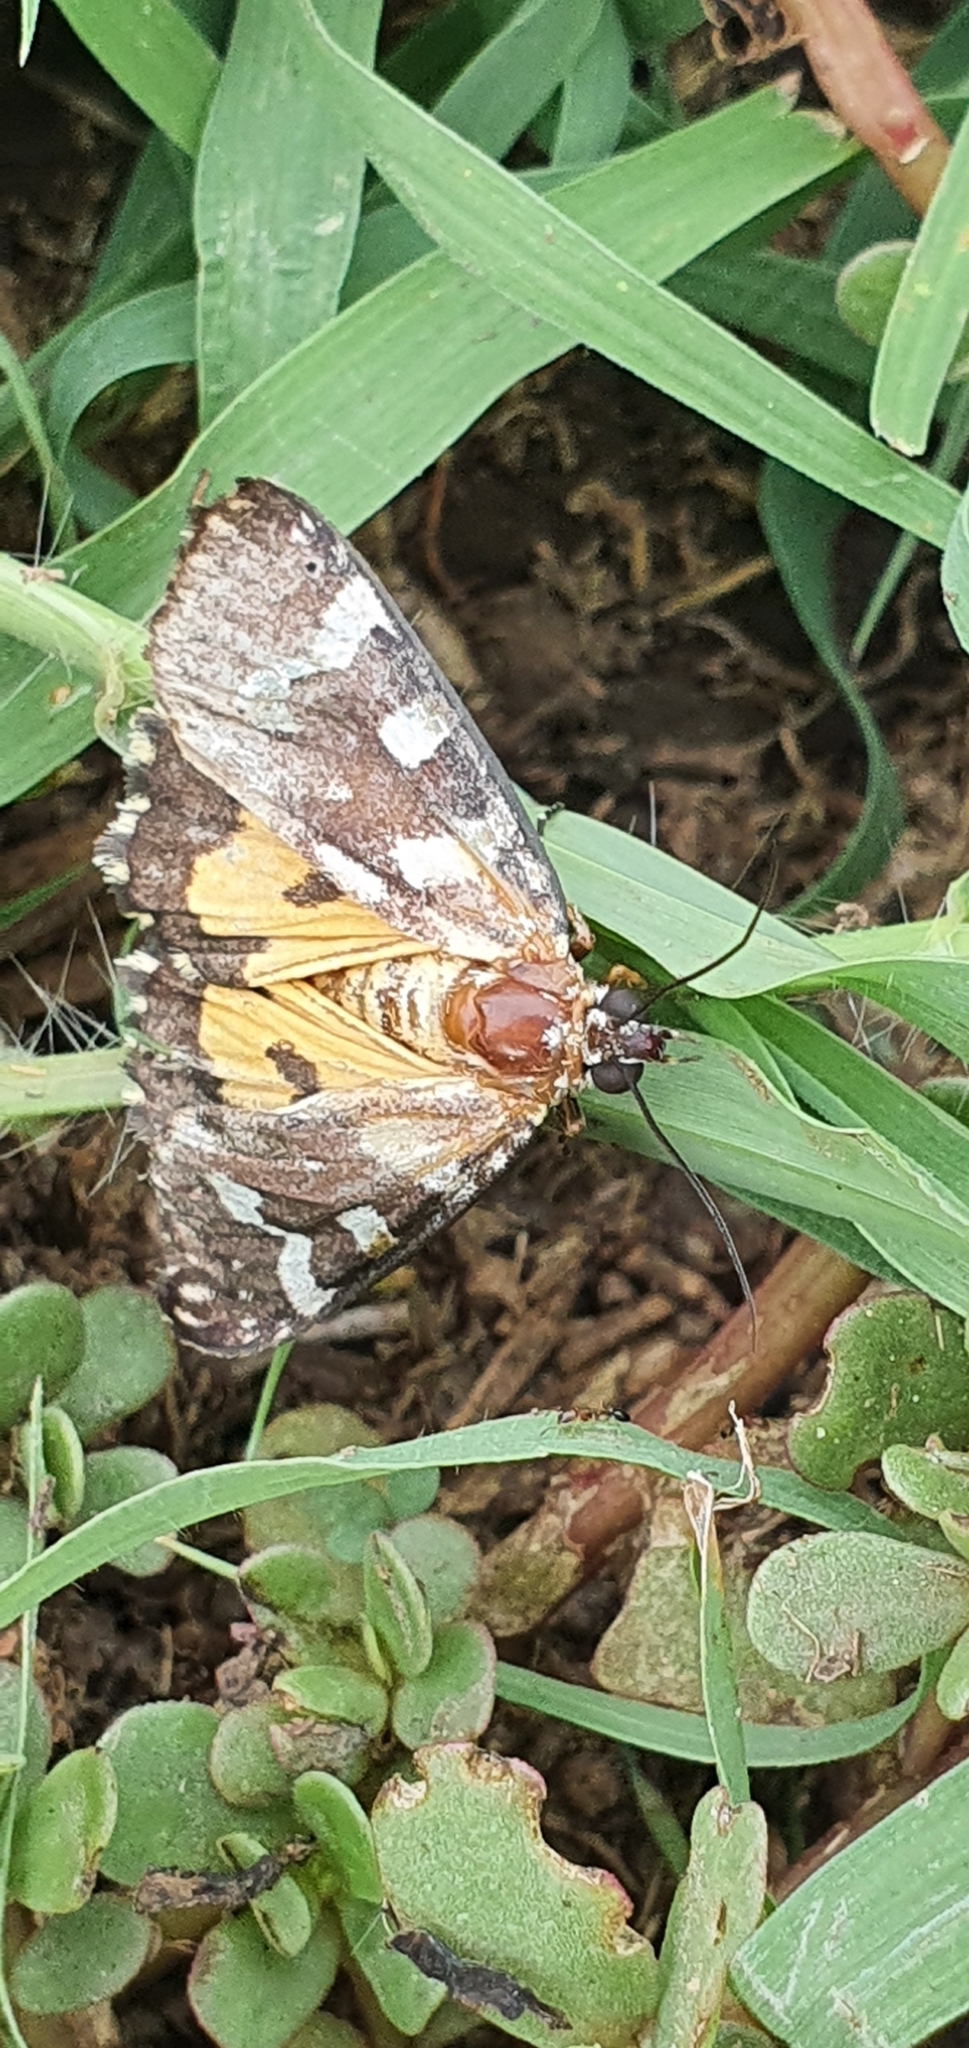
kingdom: Animalia
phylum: Arthropoda
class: Insecta
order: Lepidoptera
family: Noctuidae
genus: Ipanica
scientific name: Ipanica cornigera
